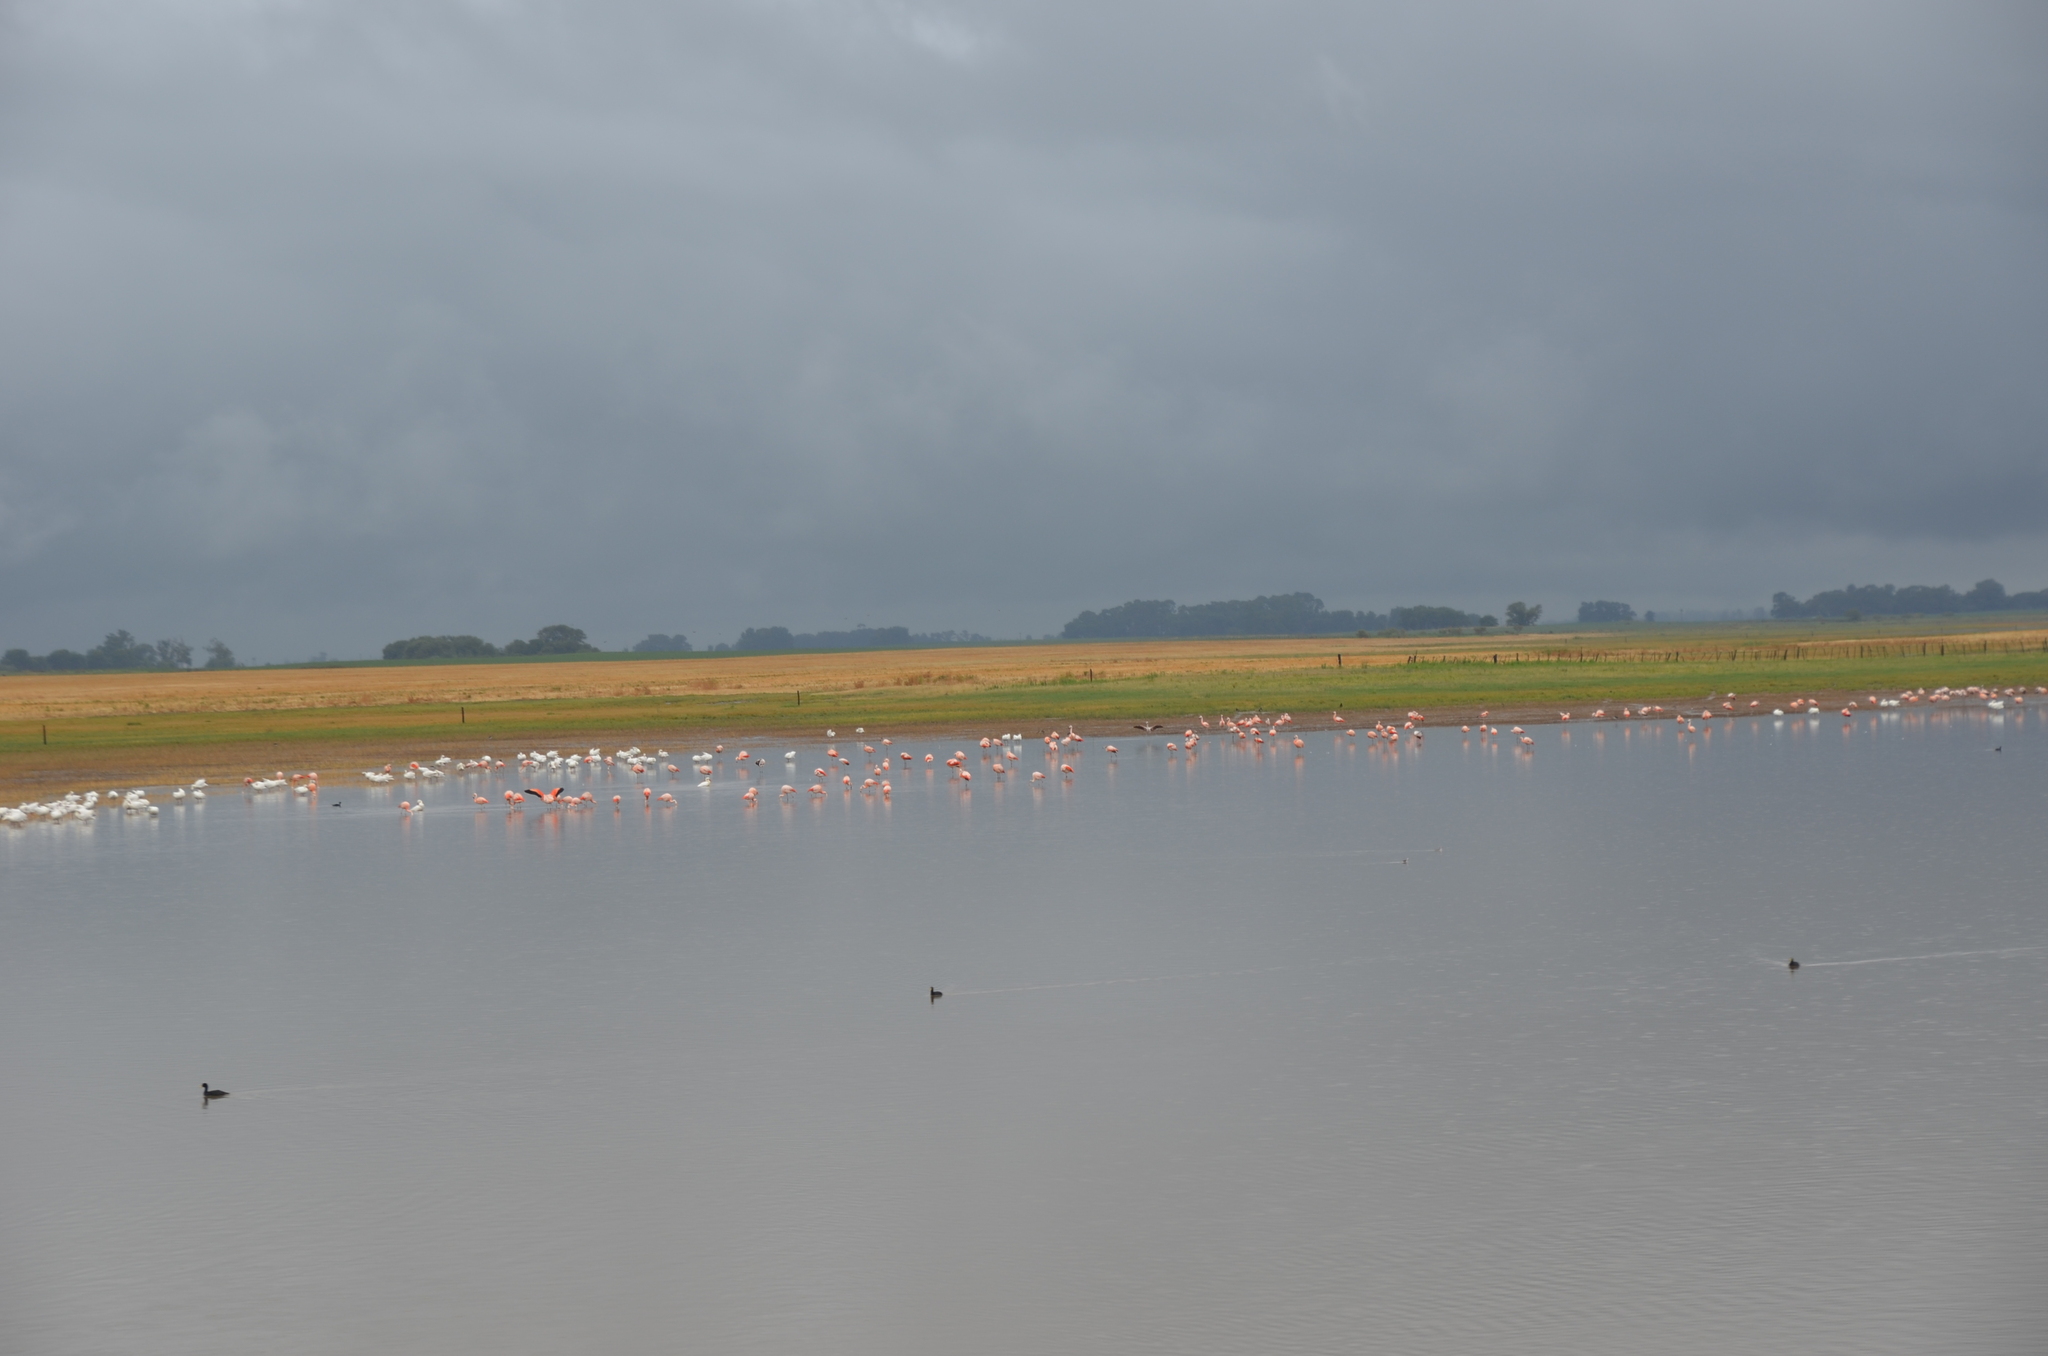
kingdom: Animalia
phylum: Chordata
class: Aves
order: Phoenicopteriformes
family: Phoenicopteridae
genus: Phoenicopterus
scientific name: Phoenicopterus chilensis
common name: Chilean flamingo
